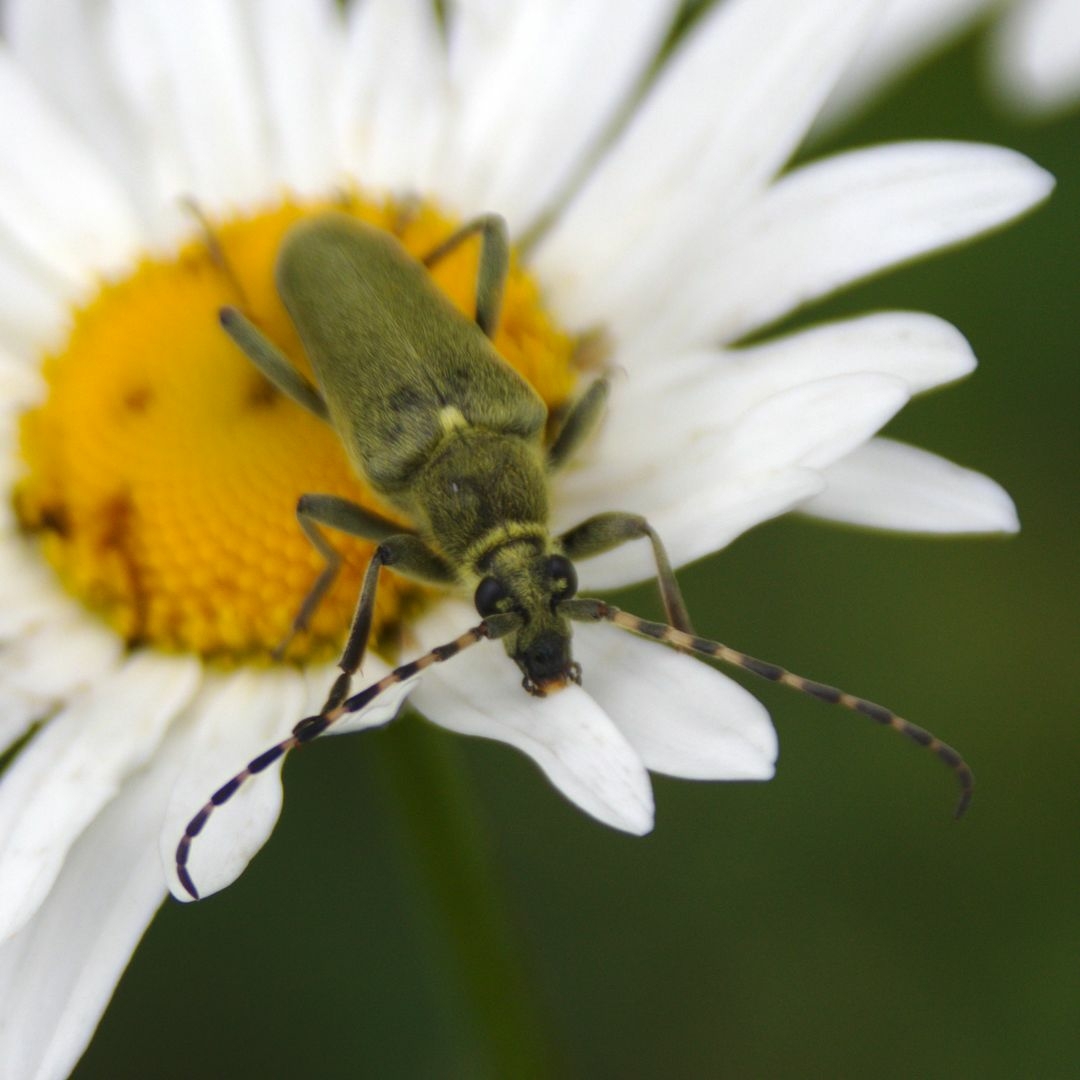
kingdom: Animalia
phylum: Arthropoda
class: Insecta
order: Coleoptera
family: Cerambycidae
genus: Lepturobosca
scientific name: Lepturobosca virens
